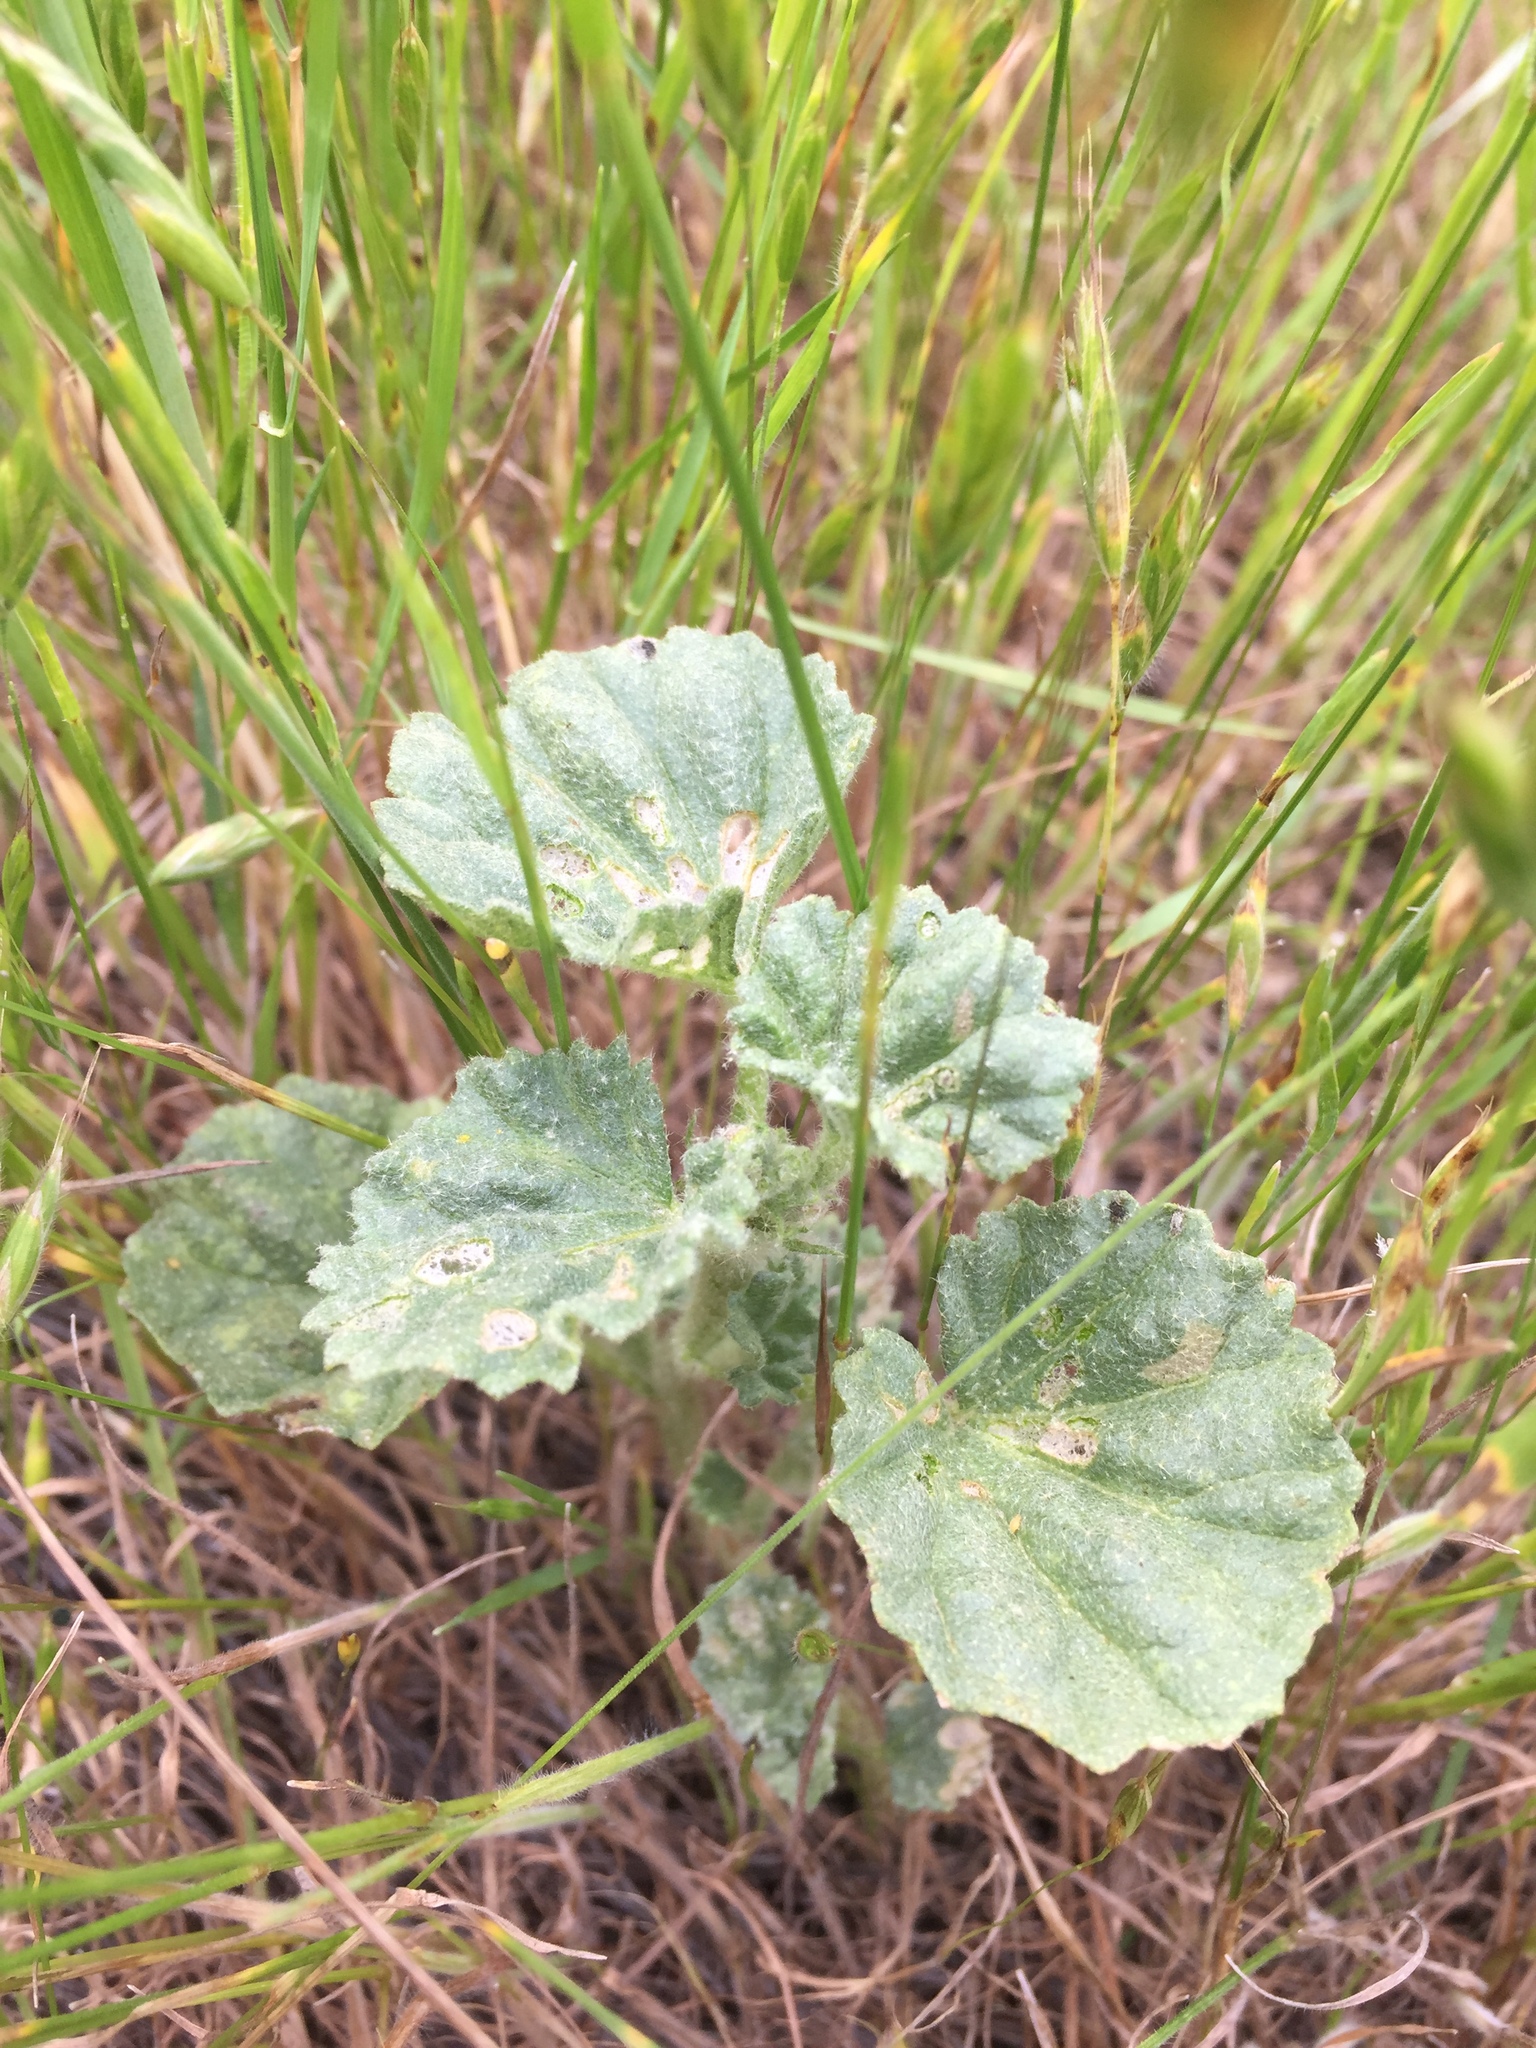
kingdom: Plantae
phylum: Tracheophyta
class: Magnoliopsida
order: Malvales
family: Malvaceae
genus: Malvella
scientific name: Malvella leprosa
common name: Alkali-mallow
